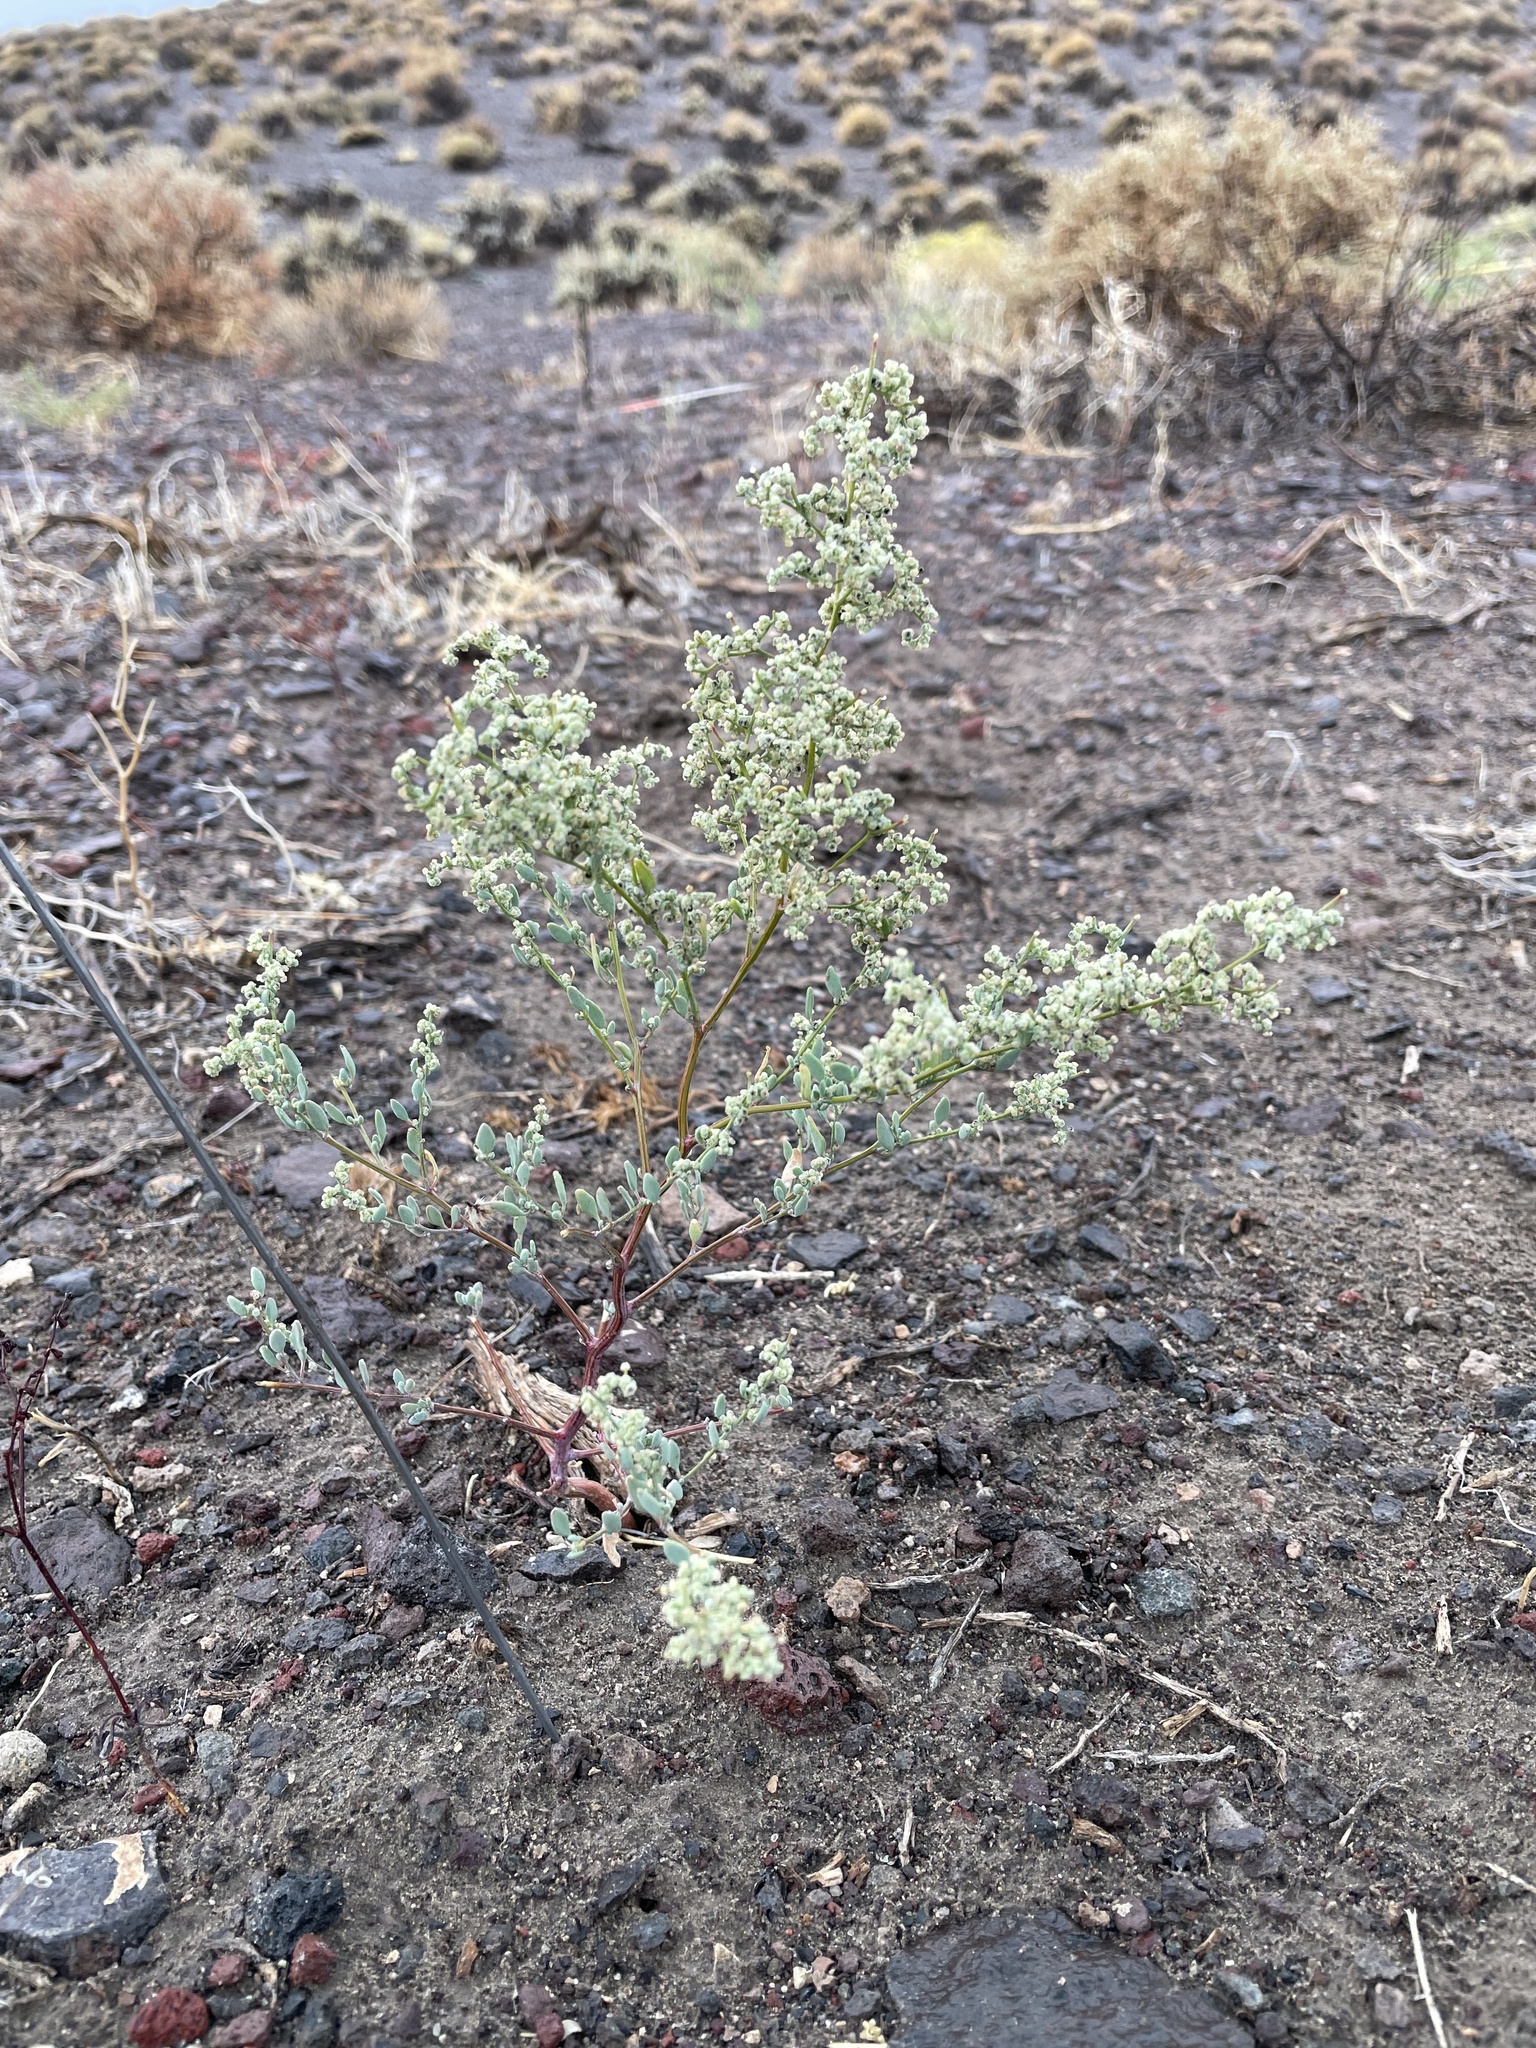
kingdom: Plantae
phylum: Tracheophyta
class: Magnoliopsida
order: Caryophyllales
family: Amaranthaceae
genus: Chenopodium
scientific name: Chenopodium nevadense
